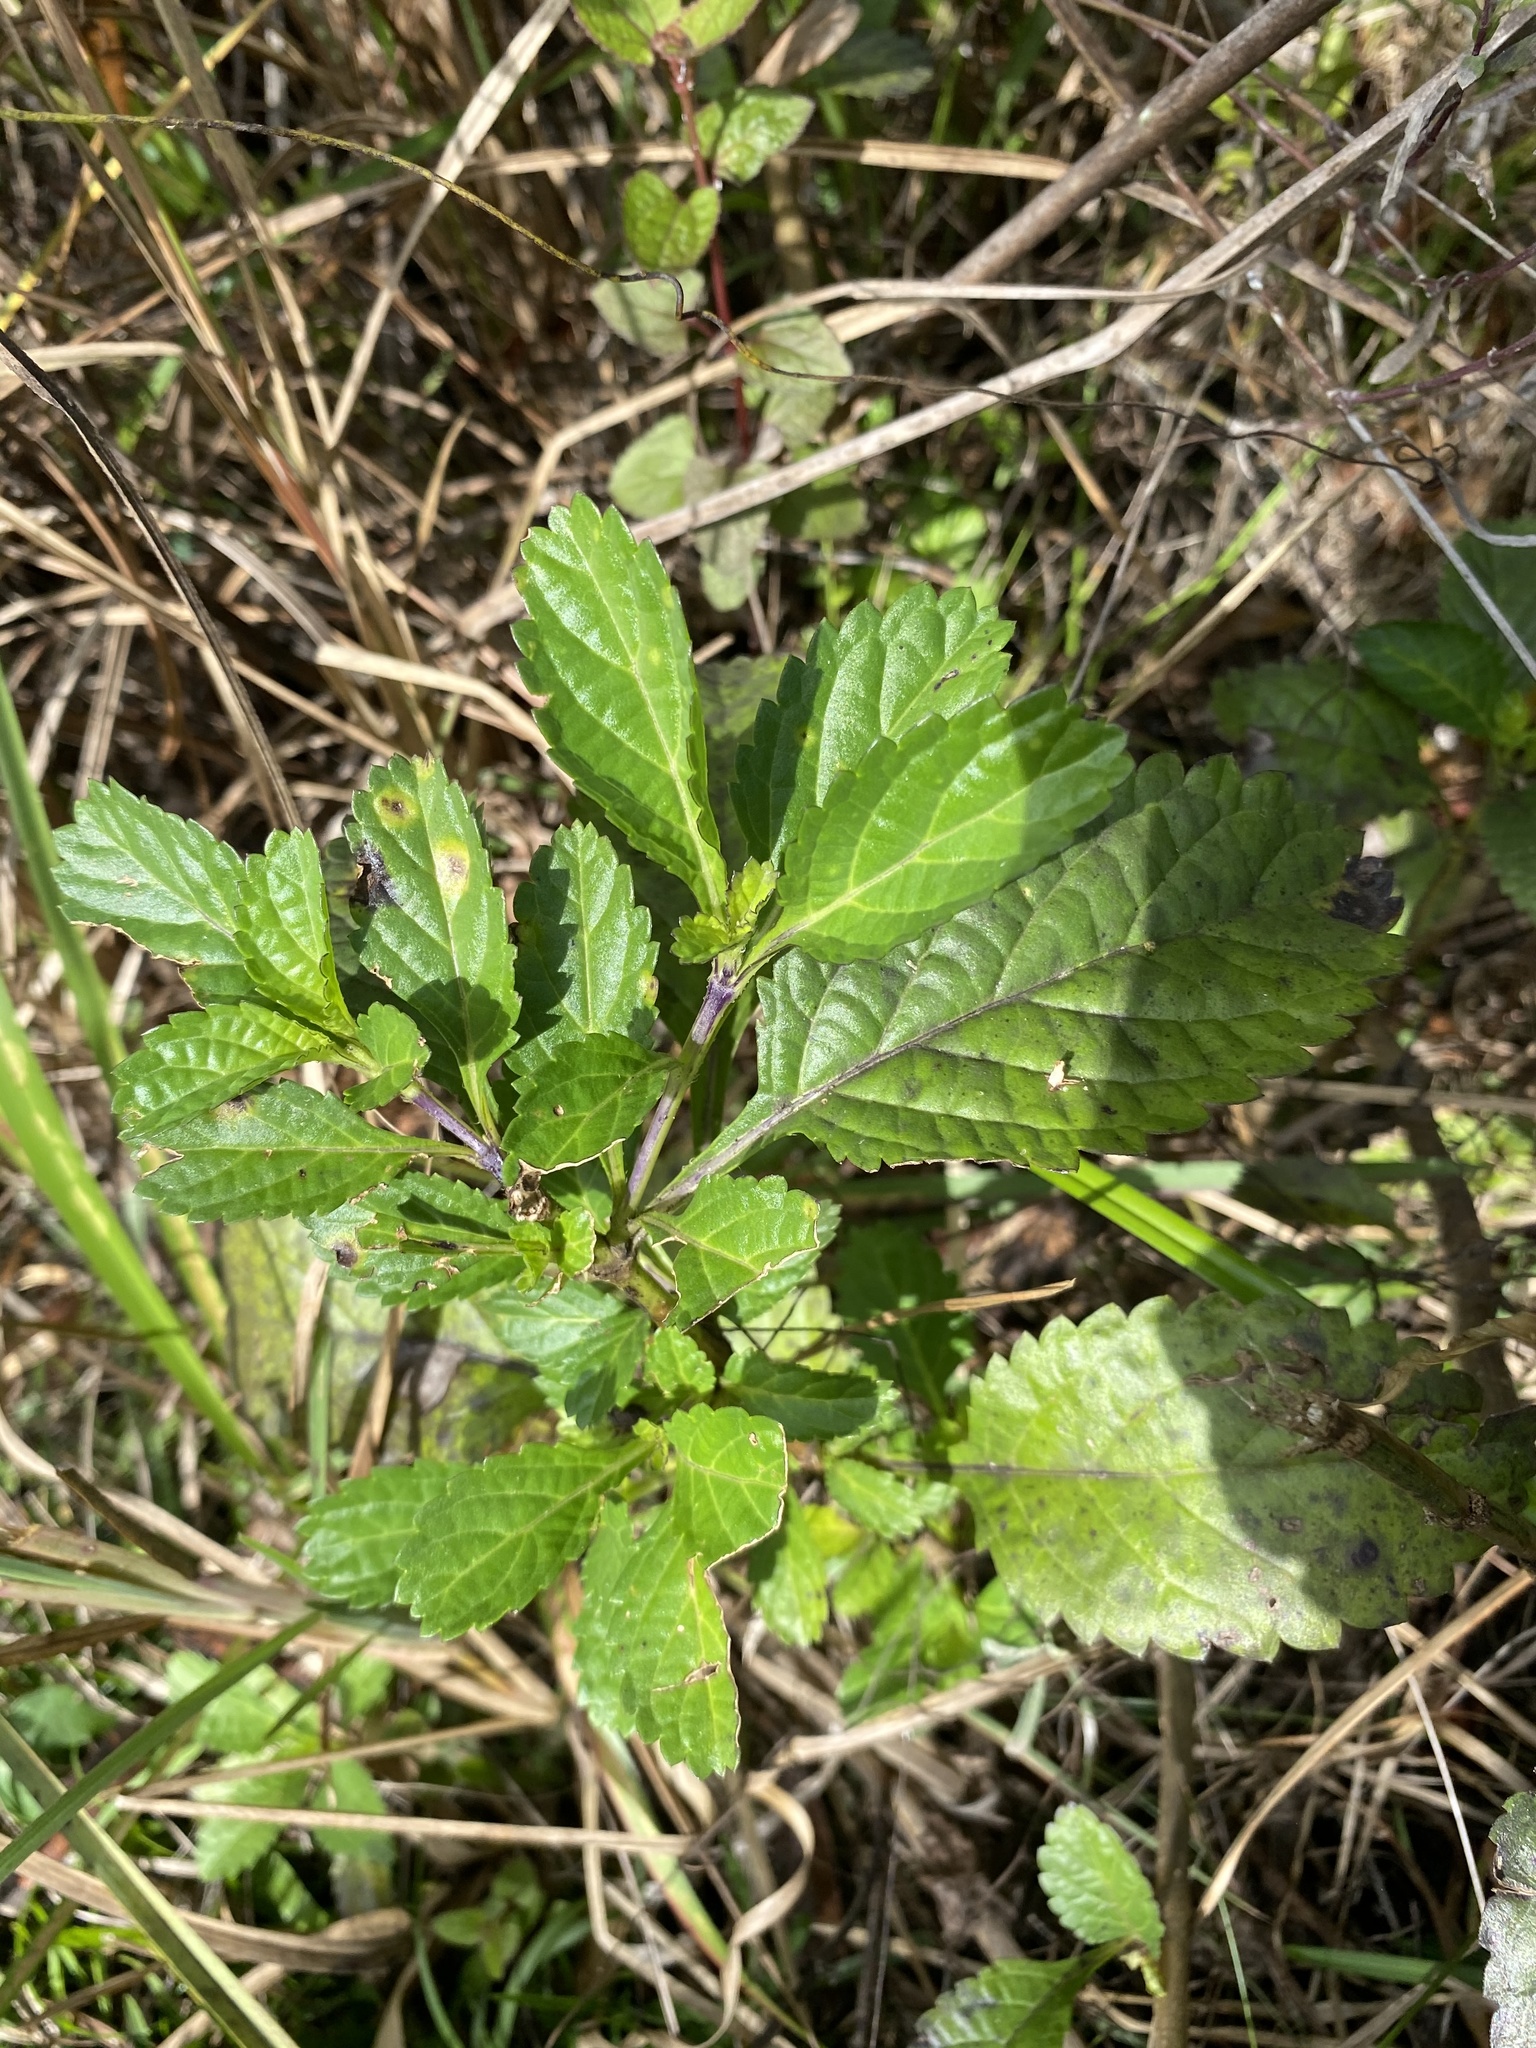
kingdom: Plantae
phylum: Tracheophyta
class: Magnoliopsida
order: Lamiales
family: Verbenaceae
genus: Stachytarpheta
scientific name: Stachytarpheta jamaicensis
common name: Light-blue snakeweed
